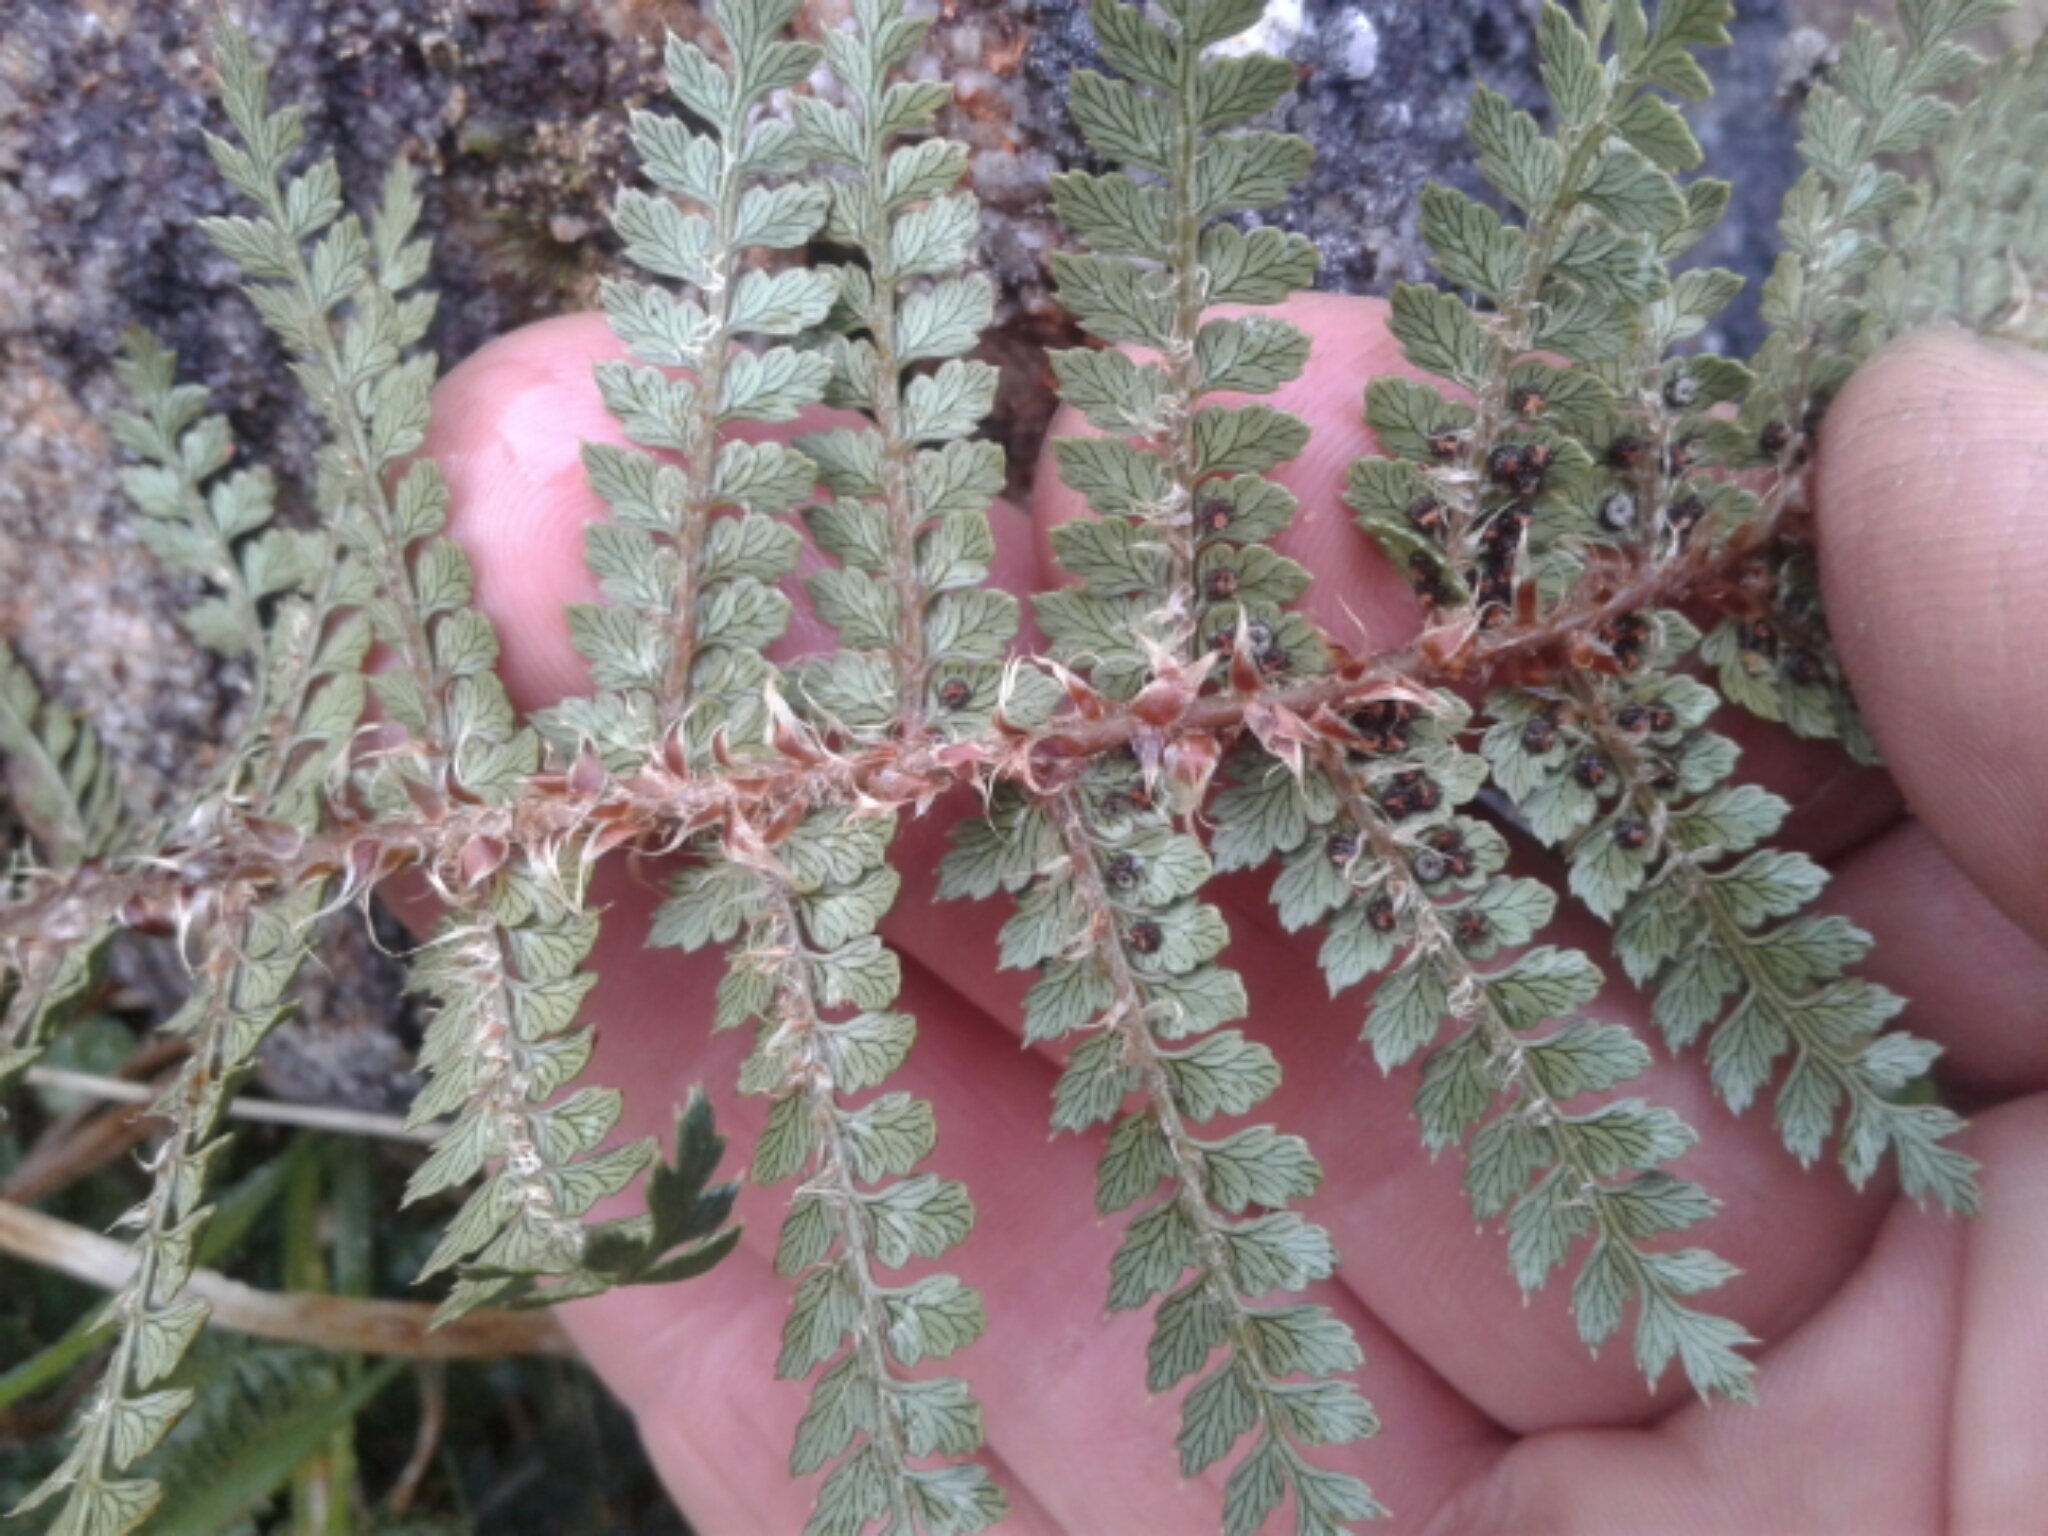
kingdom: Plantae
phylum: Tracheophyta
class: Polypodiopsida
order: Polypodiales
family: Dryopteridaceae
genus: Polystichum
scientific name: Polystichum vestitum
